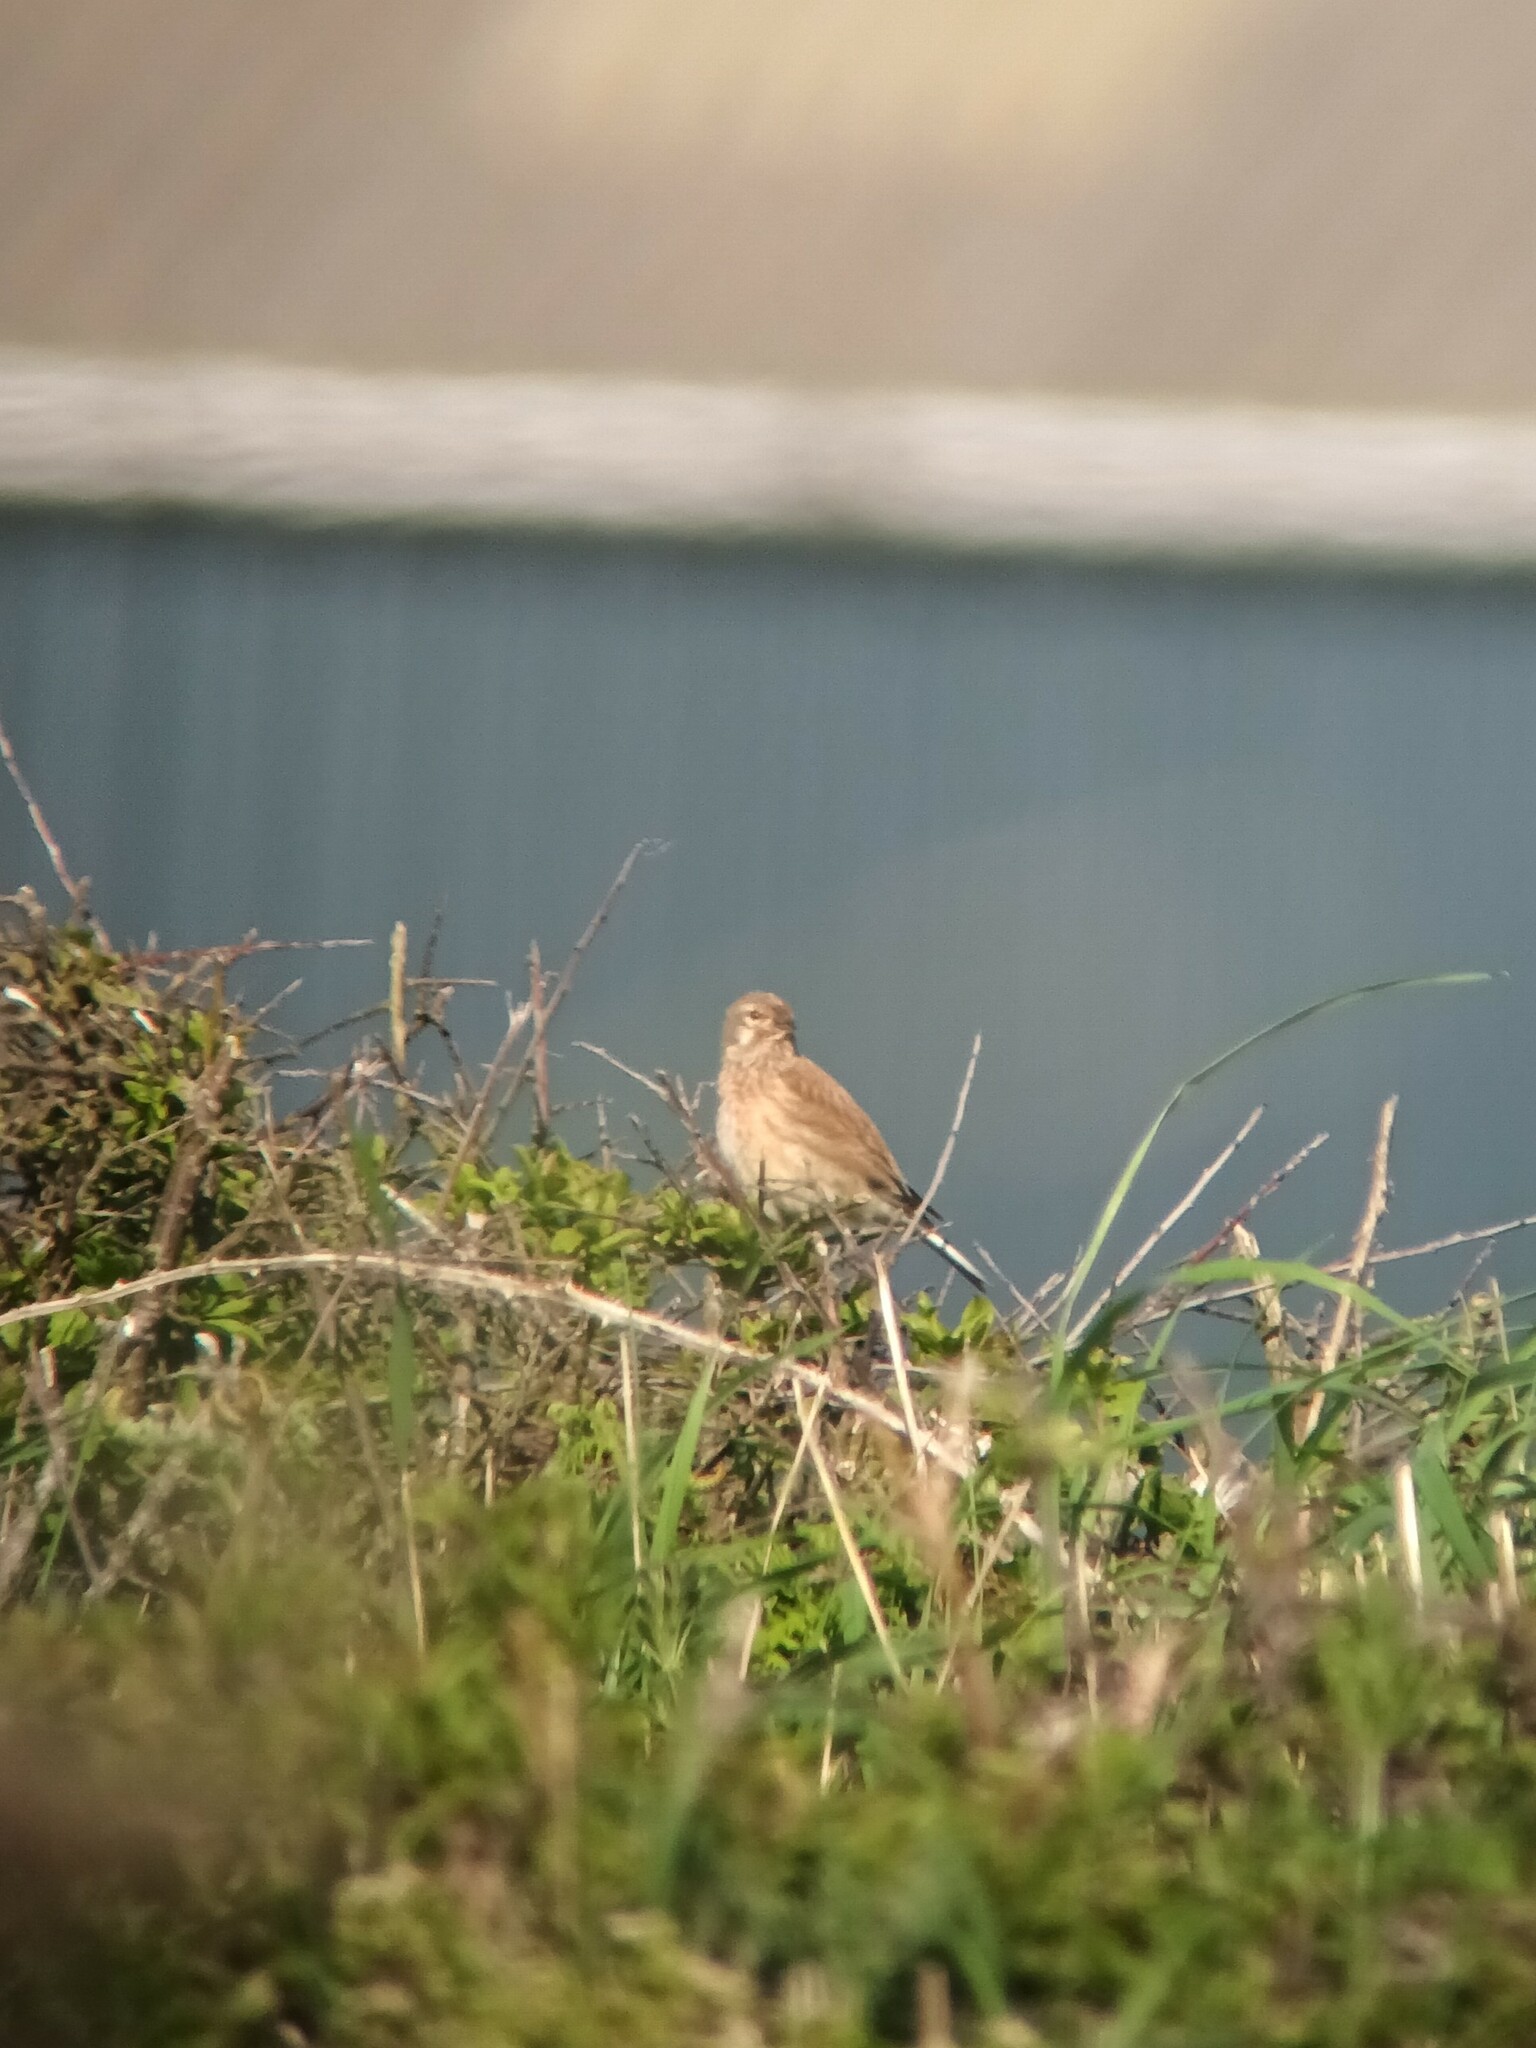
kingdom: Animalia
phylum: Chordata
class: Aves
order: Passeriformes
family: Fringillidae
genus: Linaria
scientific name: Linaria cannabina
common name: Common linnet
